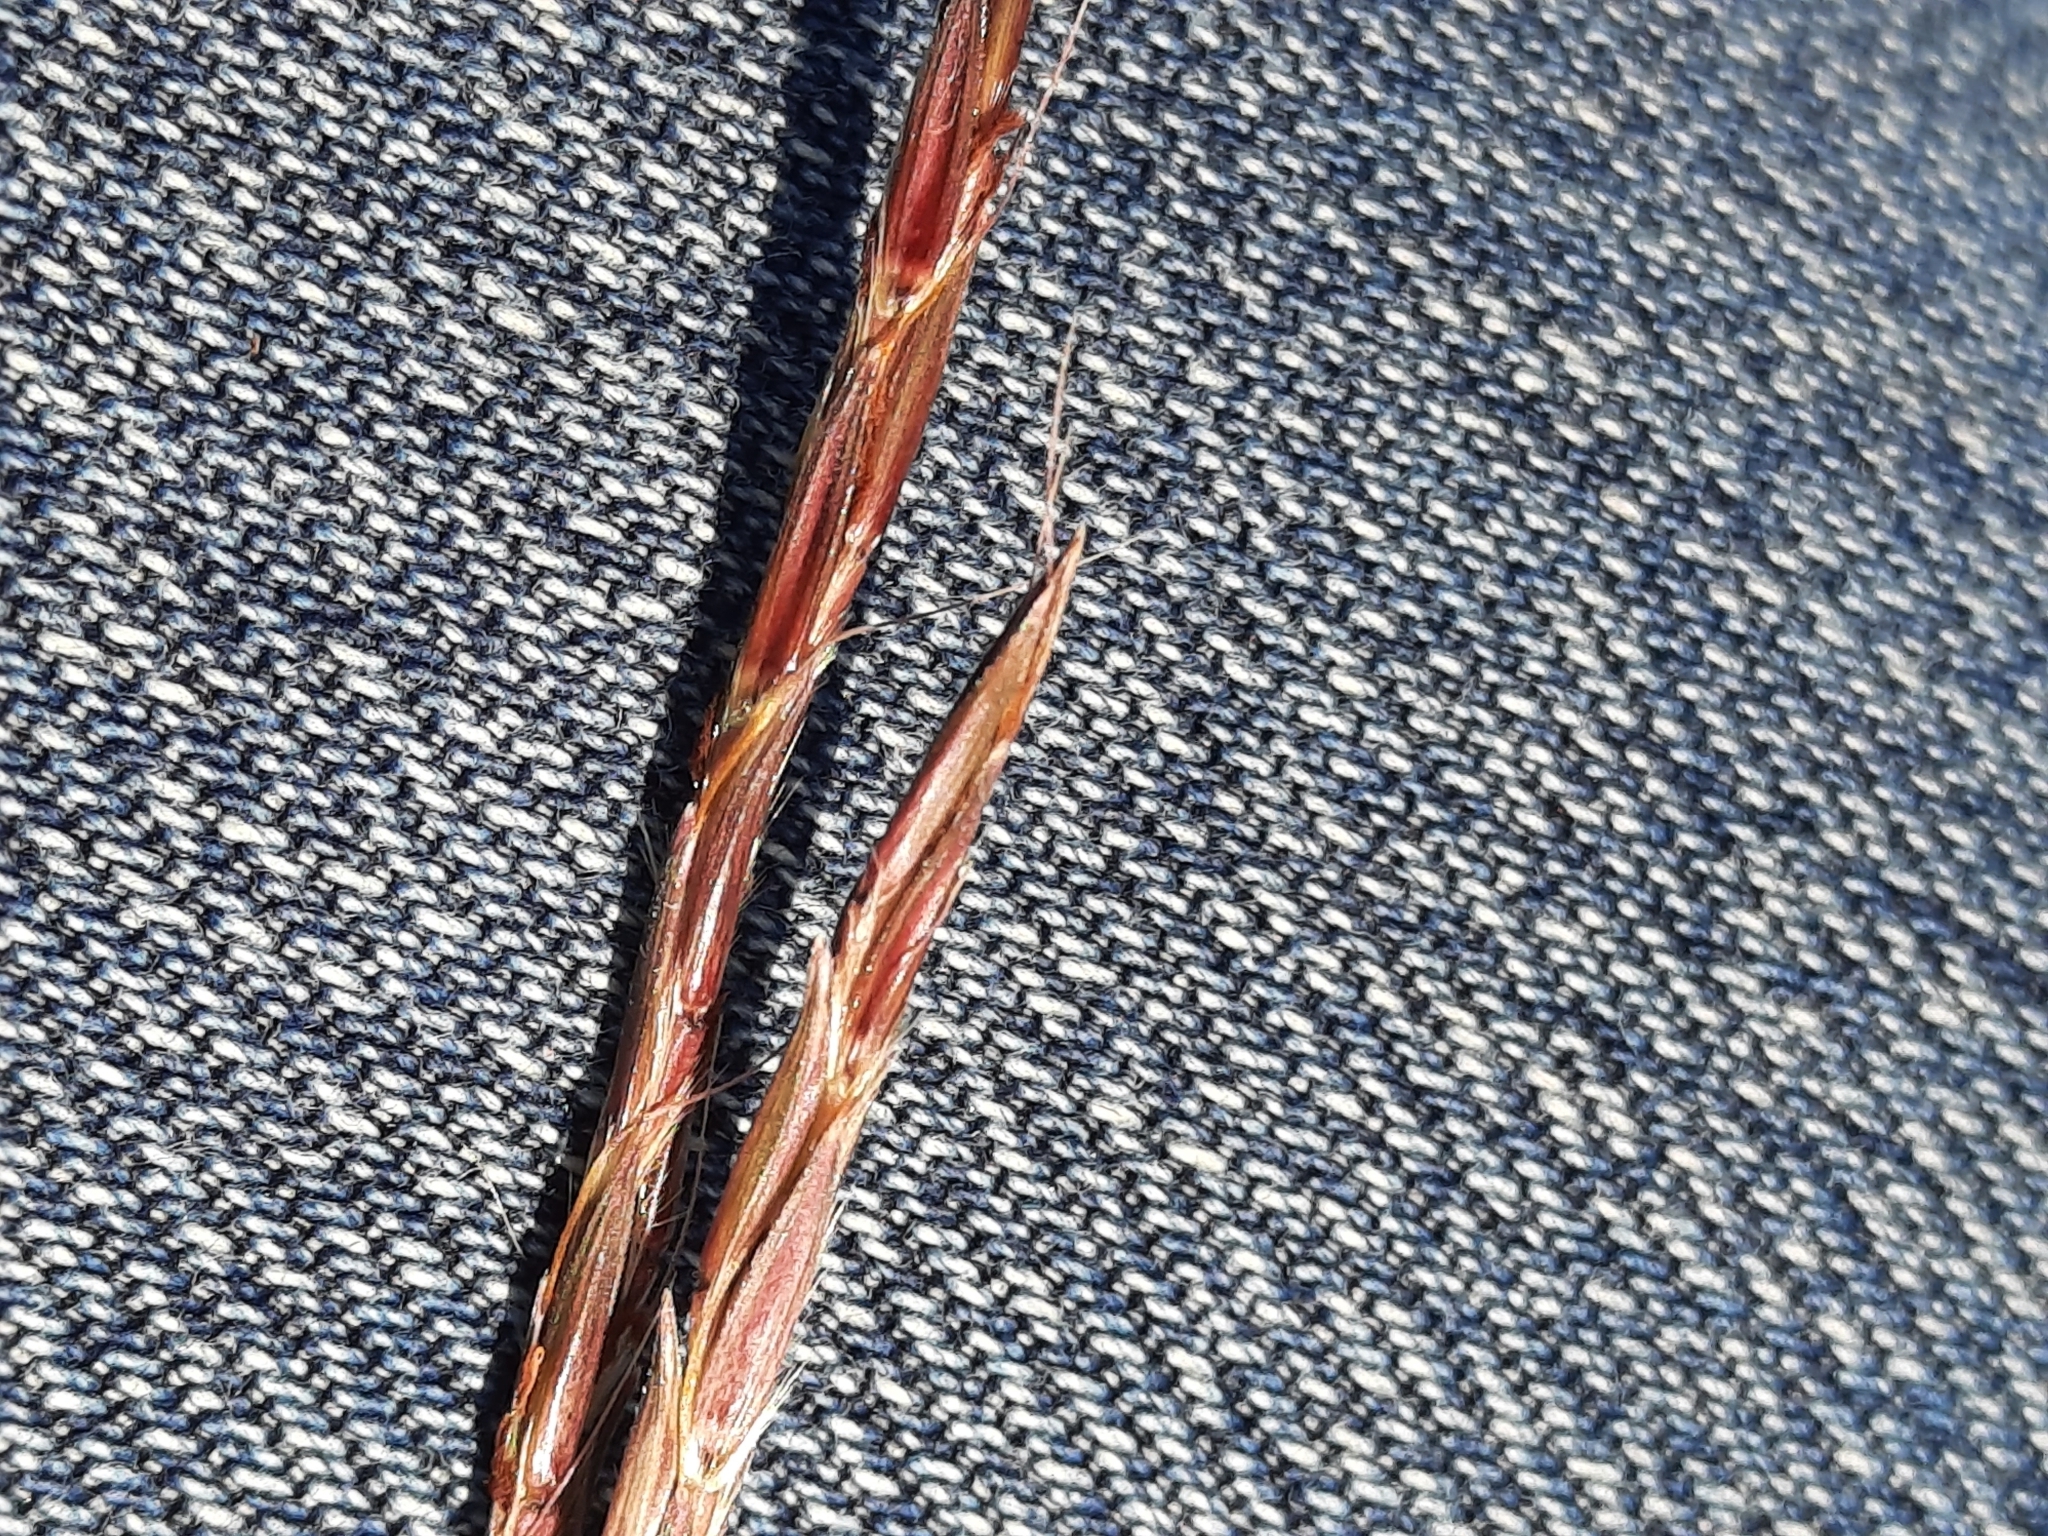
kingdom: Plantae
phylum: Tracheophyta
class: Liliopsida
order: Poales
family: Poaceae
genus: Andropogon
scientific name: Andropogon gerardi
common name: Big bluestem
